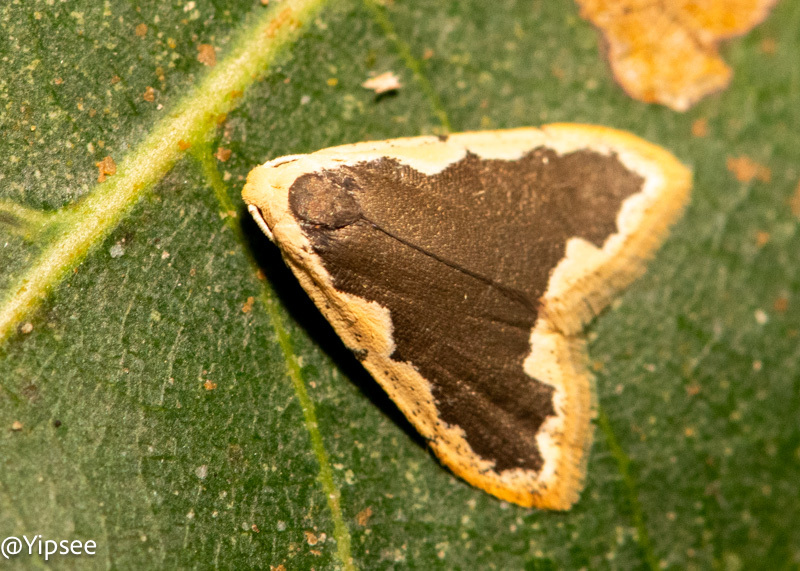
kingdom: Animalia
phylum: Arthropoda
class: Insecta
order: Lepidoptera
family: Erebidae
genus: Diduga
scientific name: Diduga flavicostata
